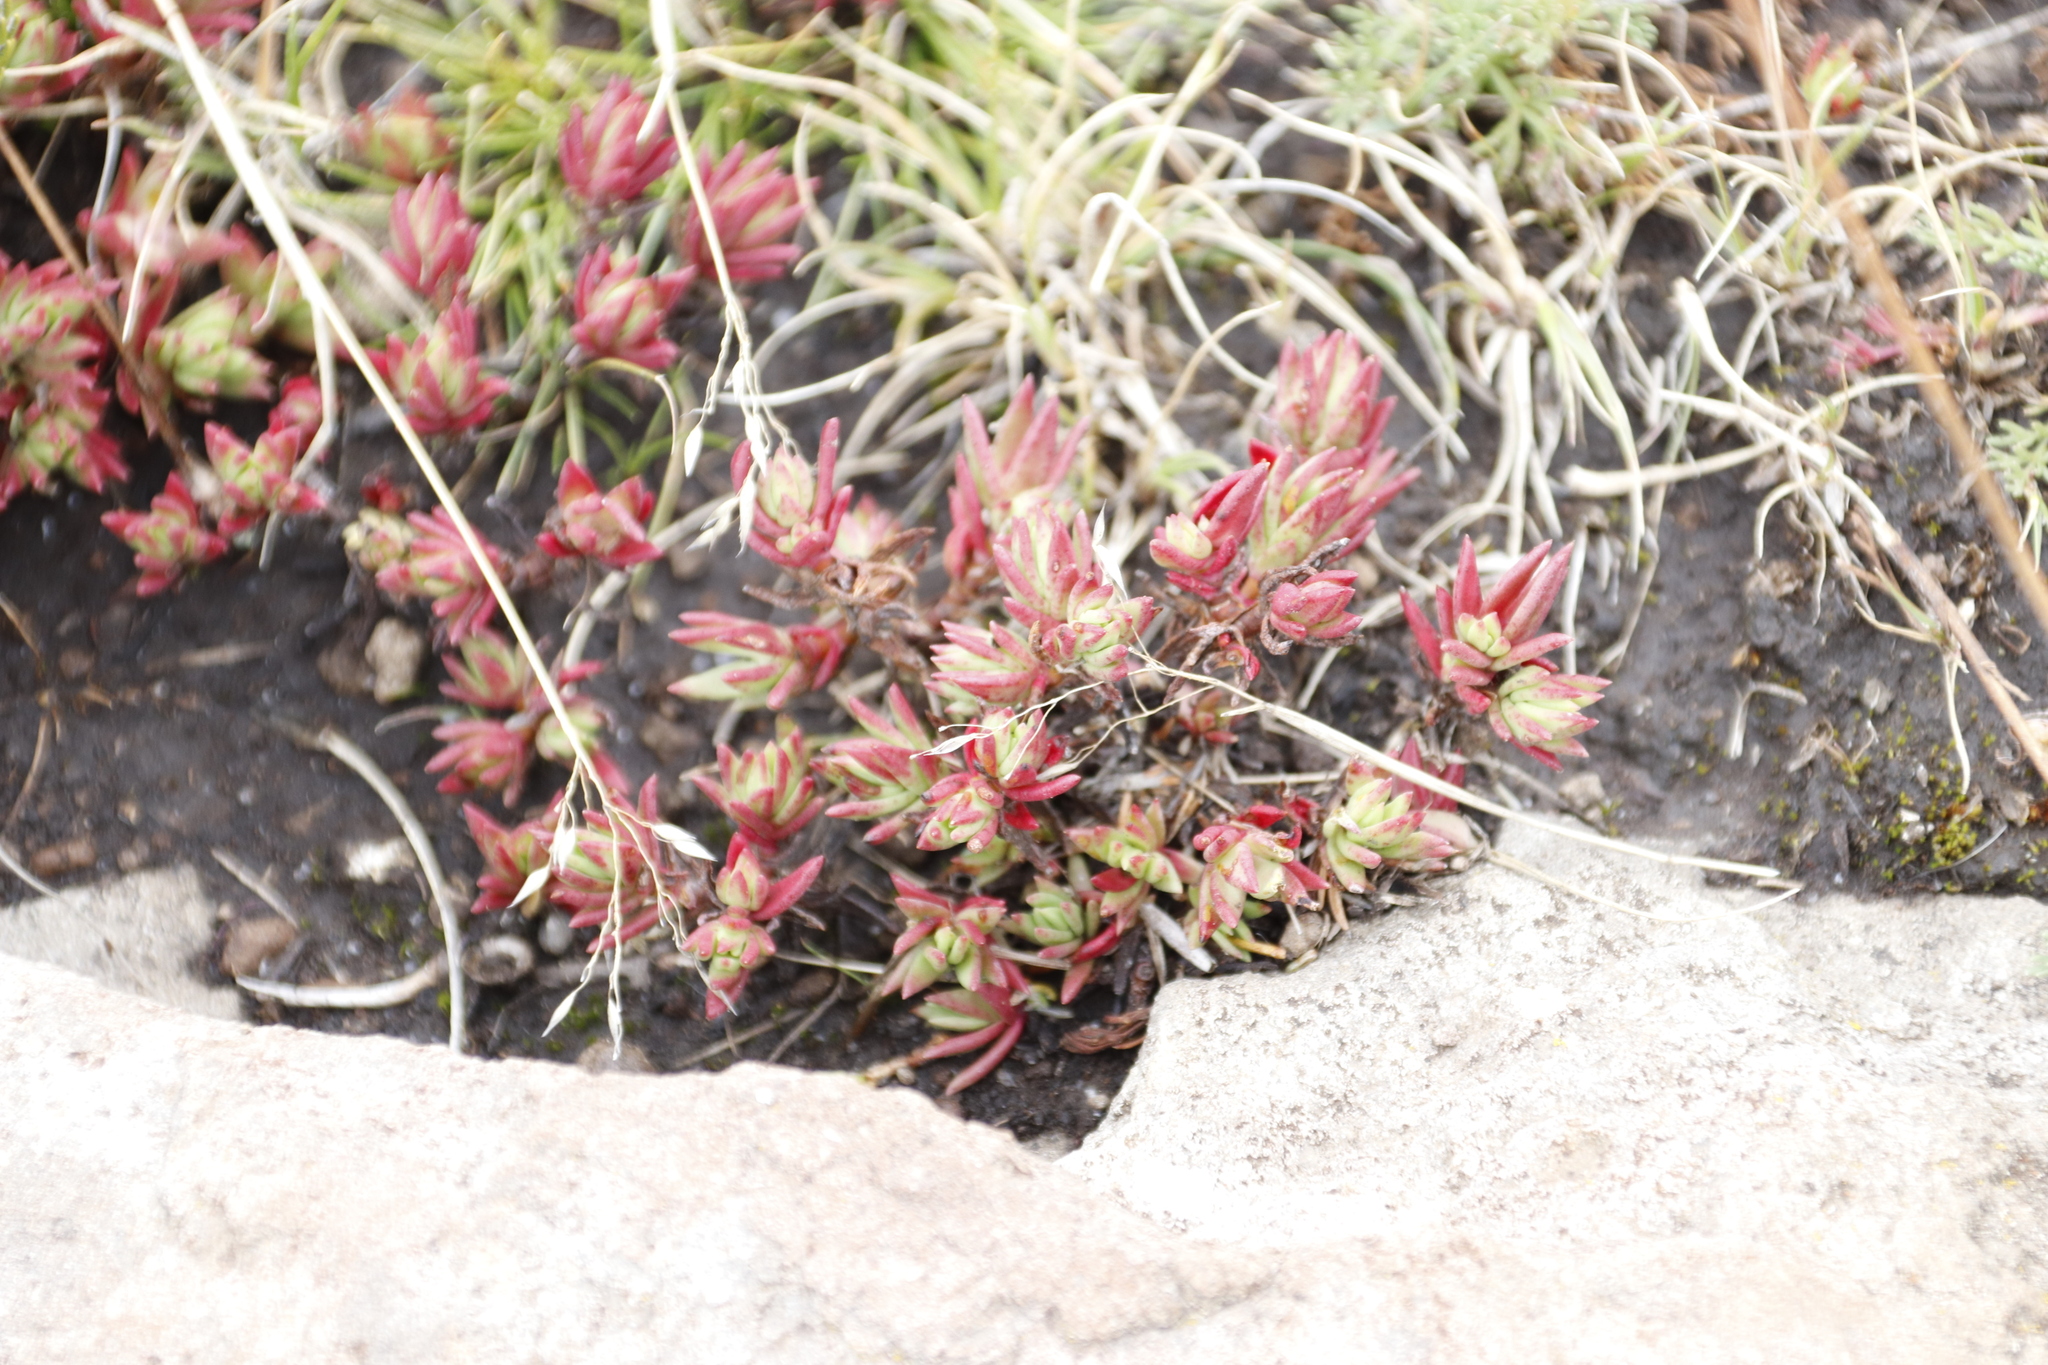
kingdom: Plantae
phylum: Tracheophyta
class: Magnoliopsida
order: Saxifragales
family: Crassulaceae
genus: Crassula
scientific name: Crassula dependens
